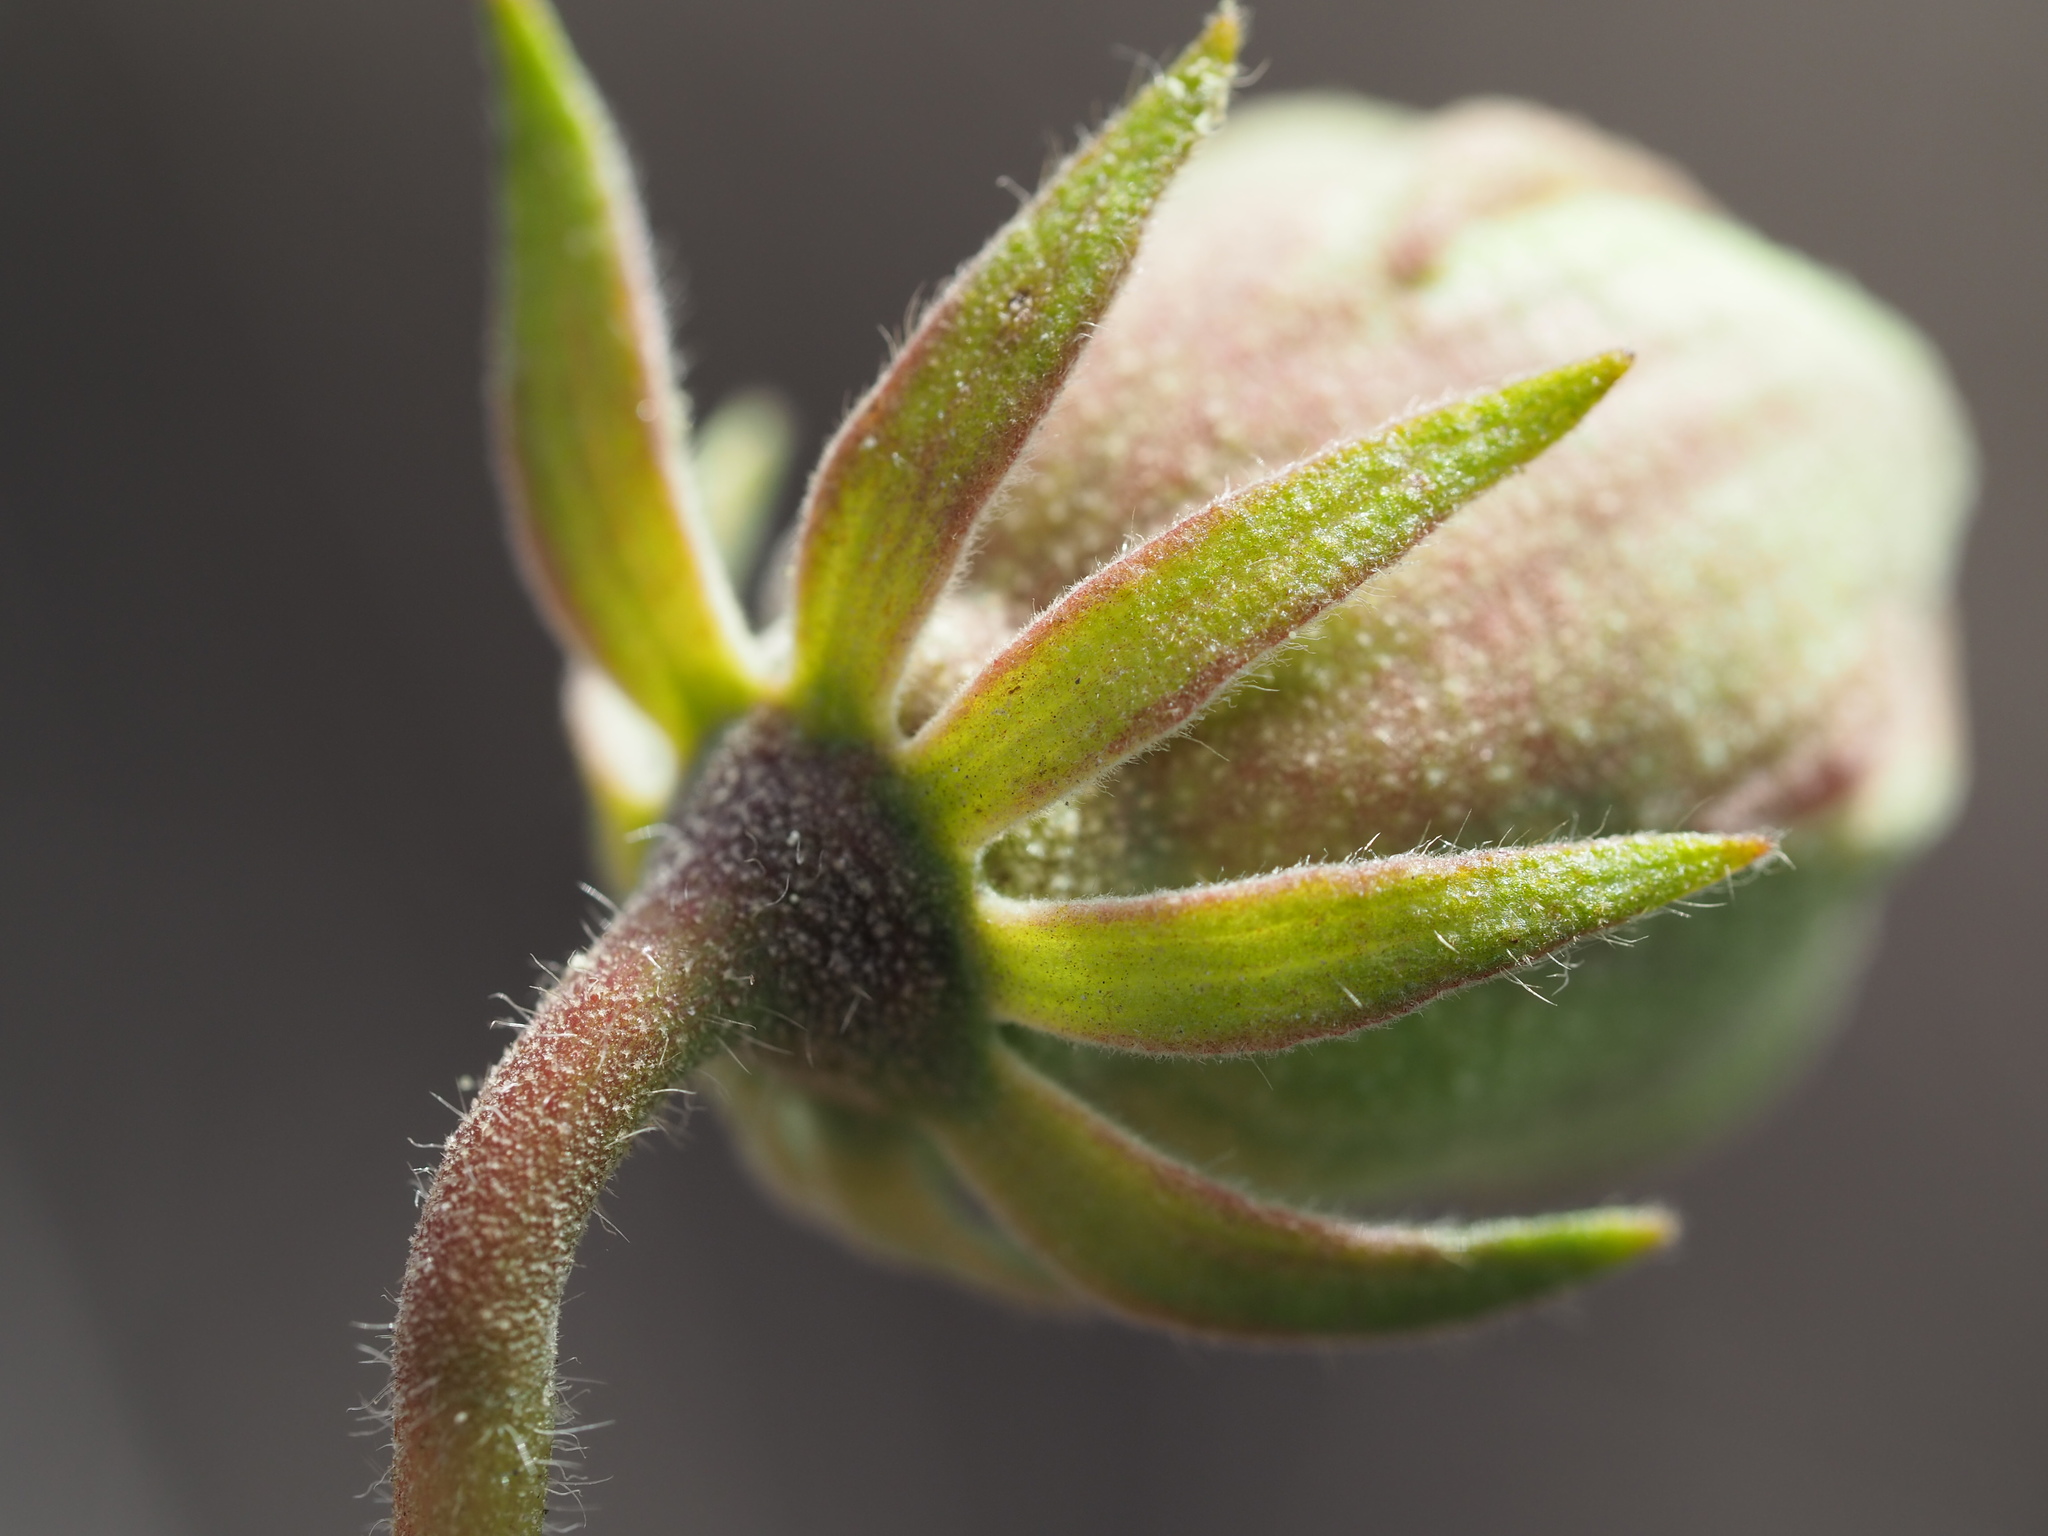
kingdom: Plantae
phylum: Tracheophyta
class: Magnoliopsida
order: Malvales
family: Malvaceae
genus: Hibiscus
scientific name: Hibiscus taiwanensis
